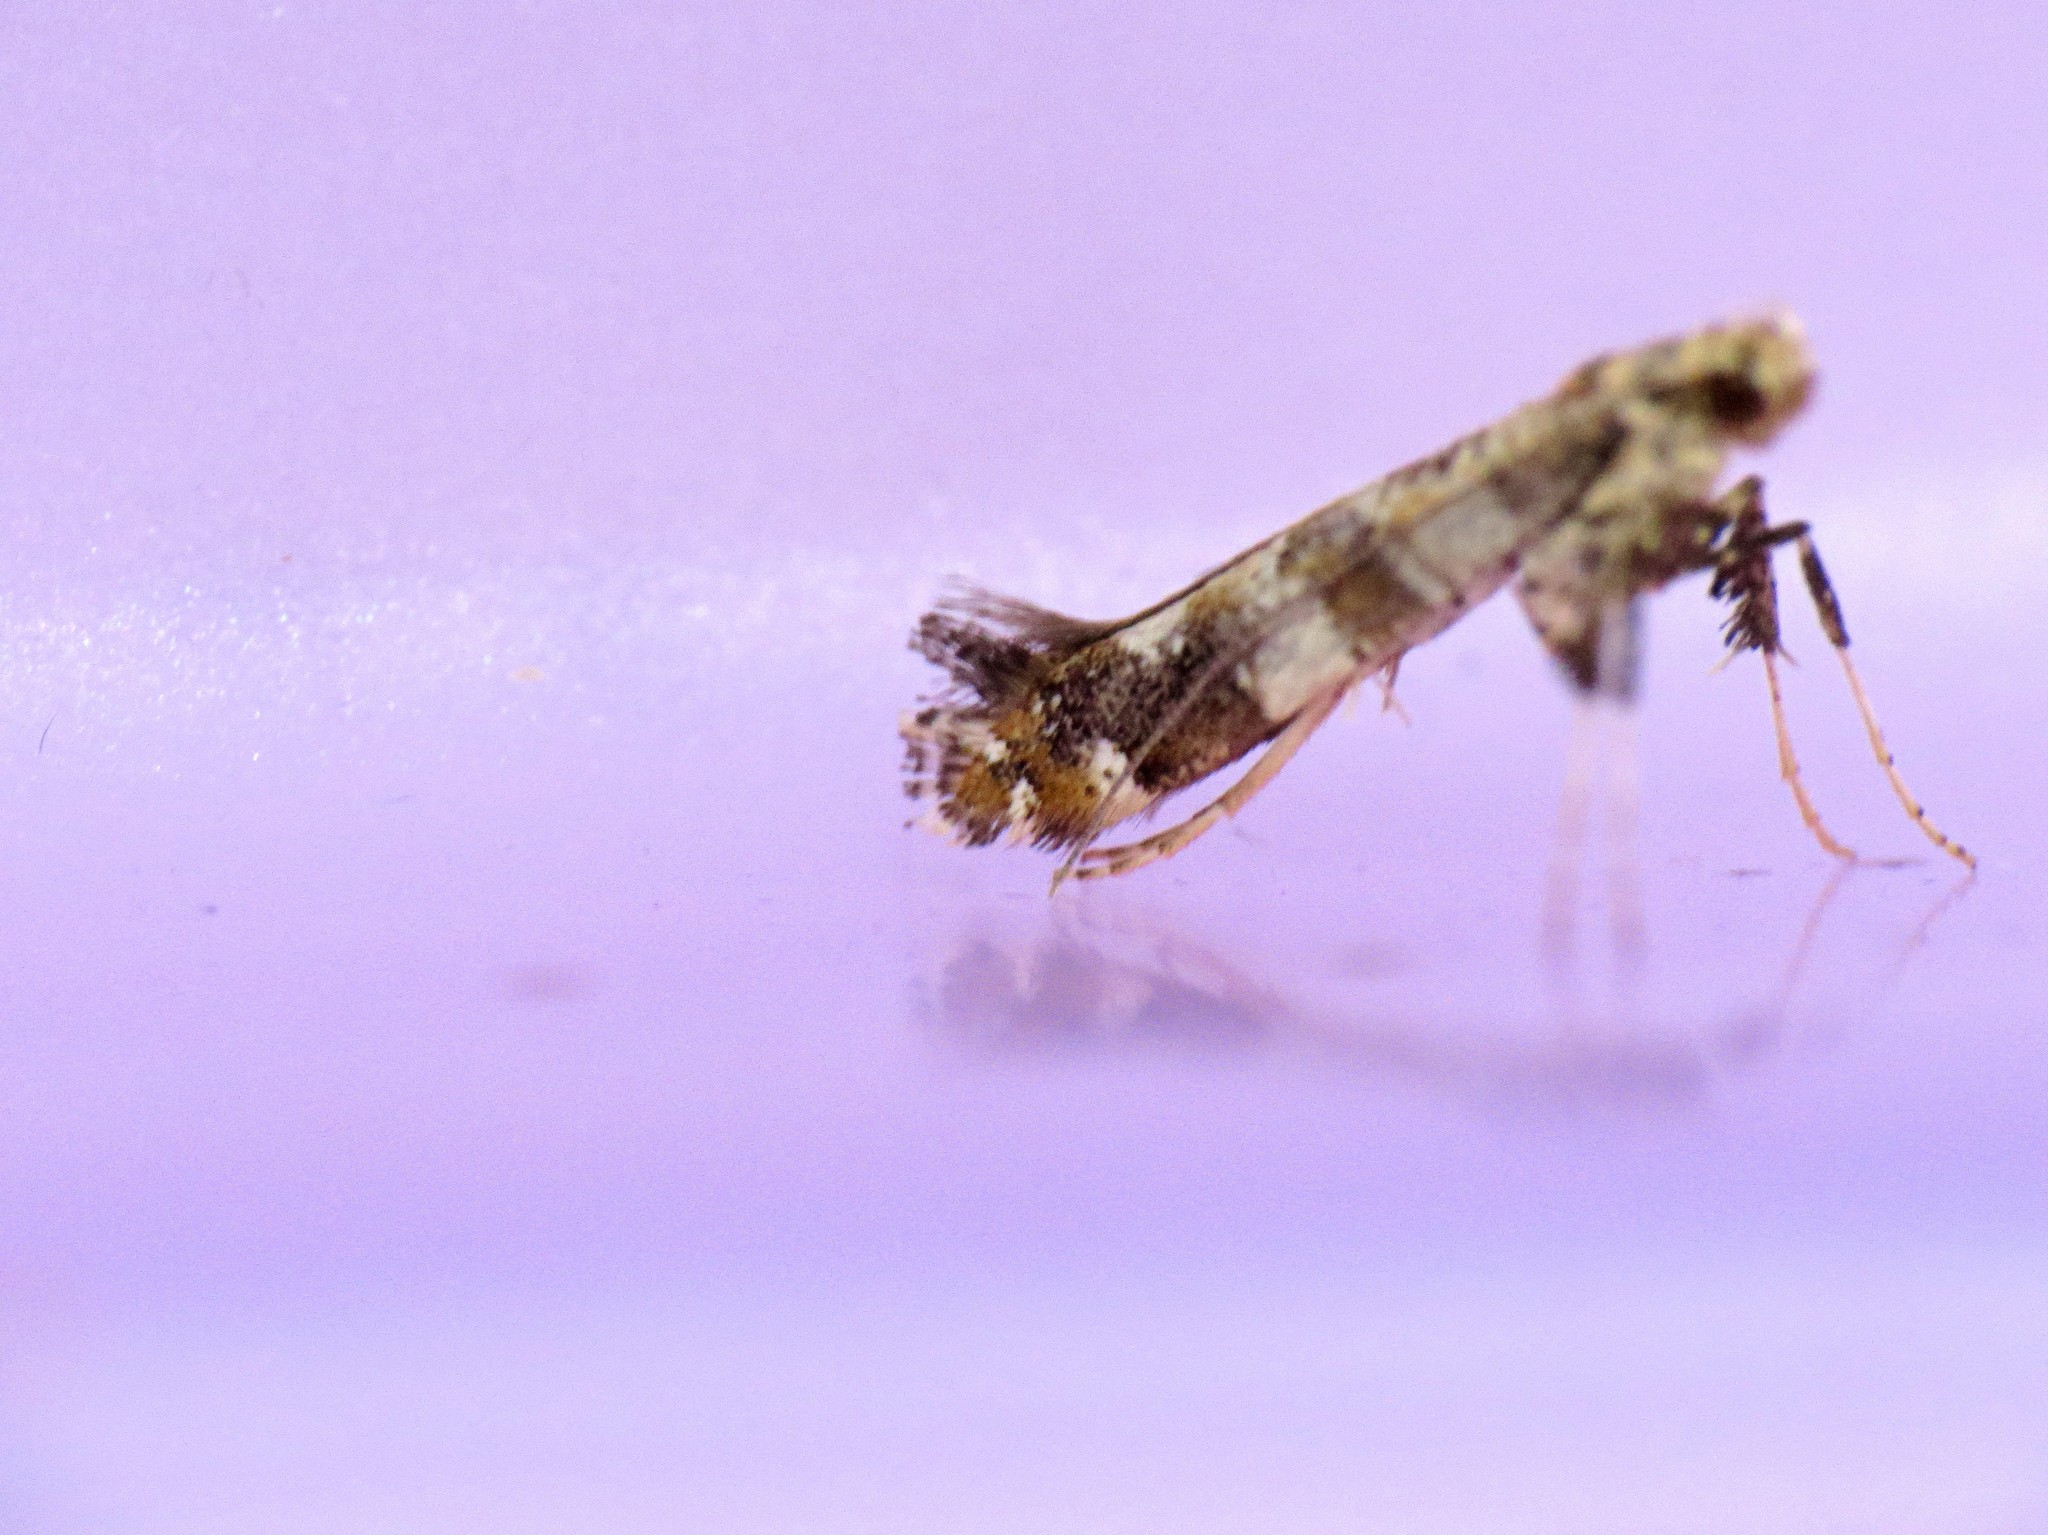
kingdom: Animalia
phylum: Arthropoda
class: Insecta
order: Lepidoptera
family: Gracillariidae
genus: Gracillaria
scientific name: Gracillaria syringella
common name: Common slender
